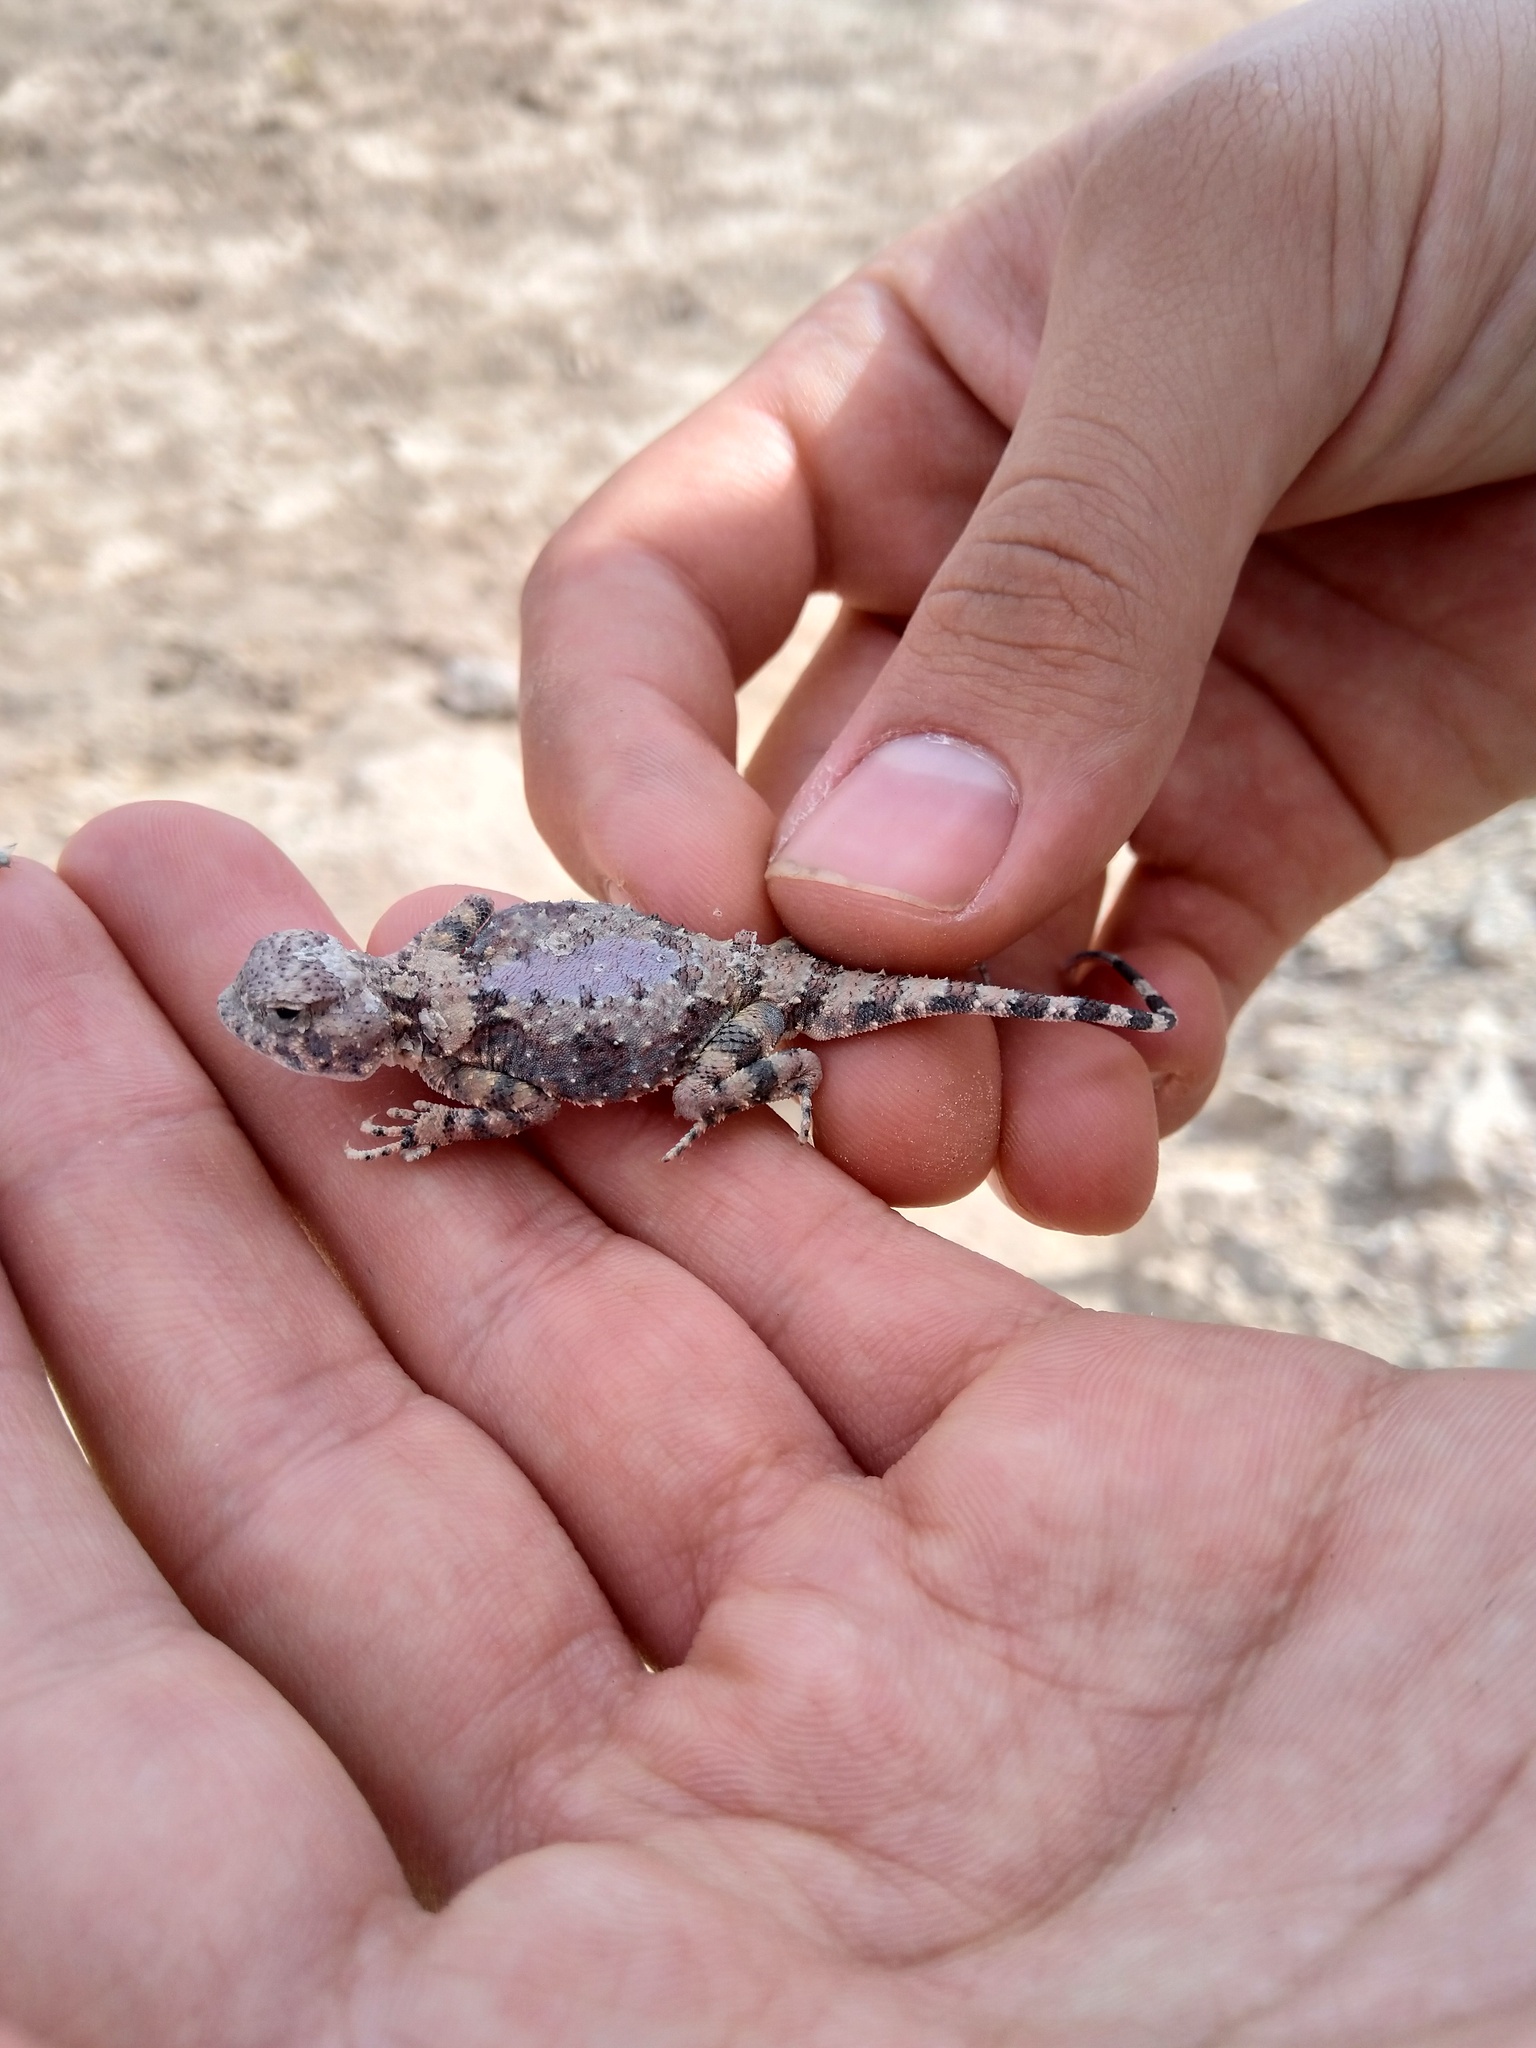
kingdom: Animalia
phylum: Chordata
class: Squamata
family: Agamidae
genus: Phrynocephalus
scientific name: Phrynocephalus scutellatus
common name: Gray toad head agama
